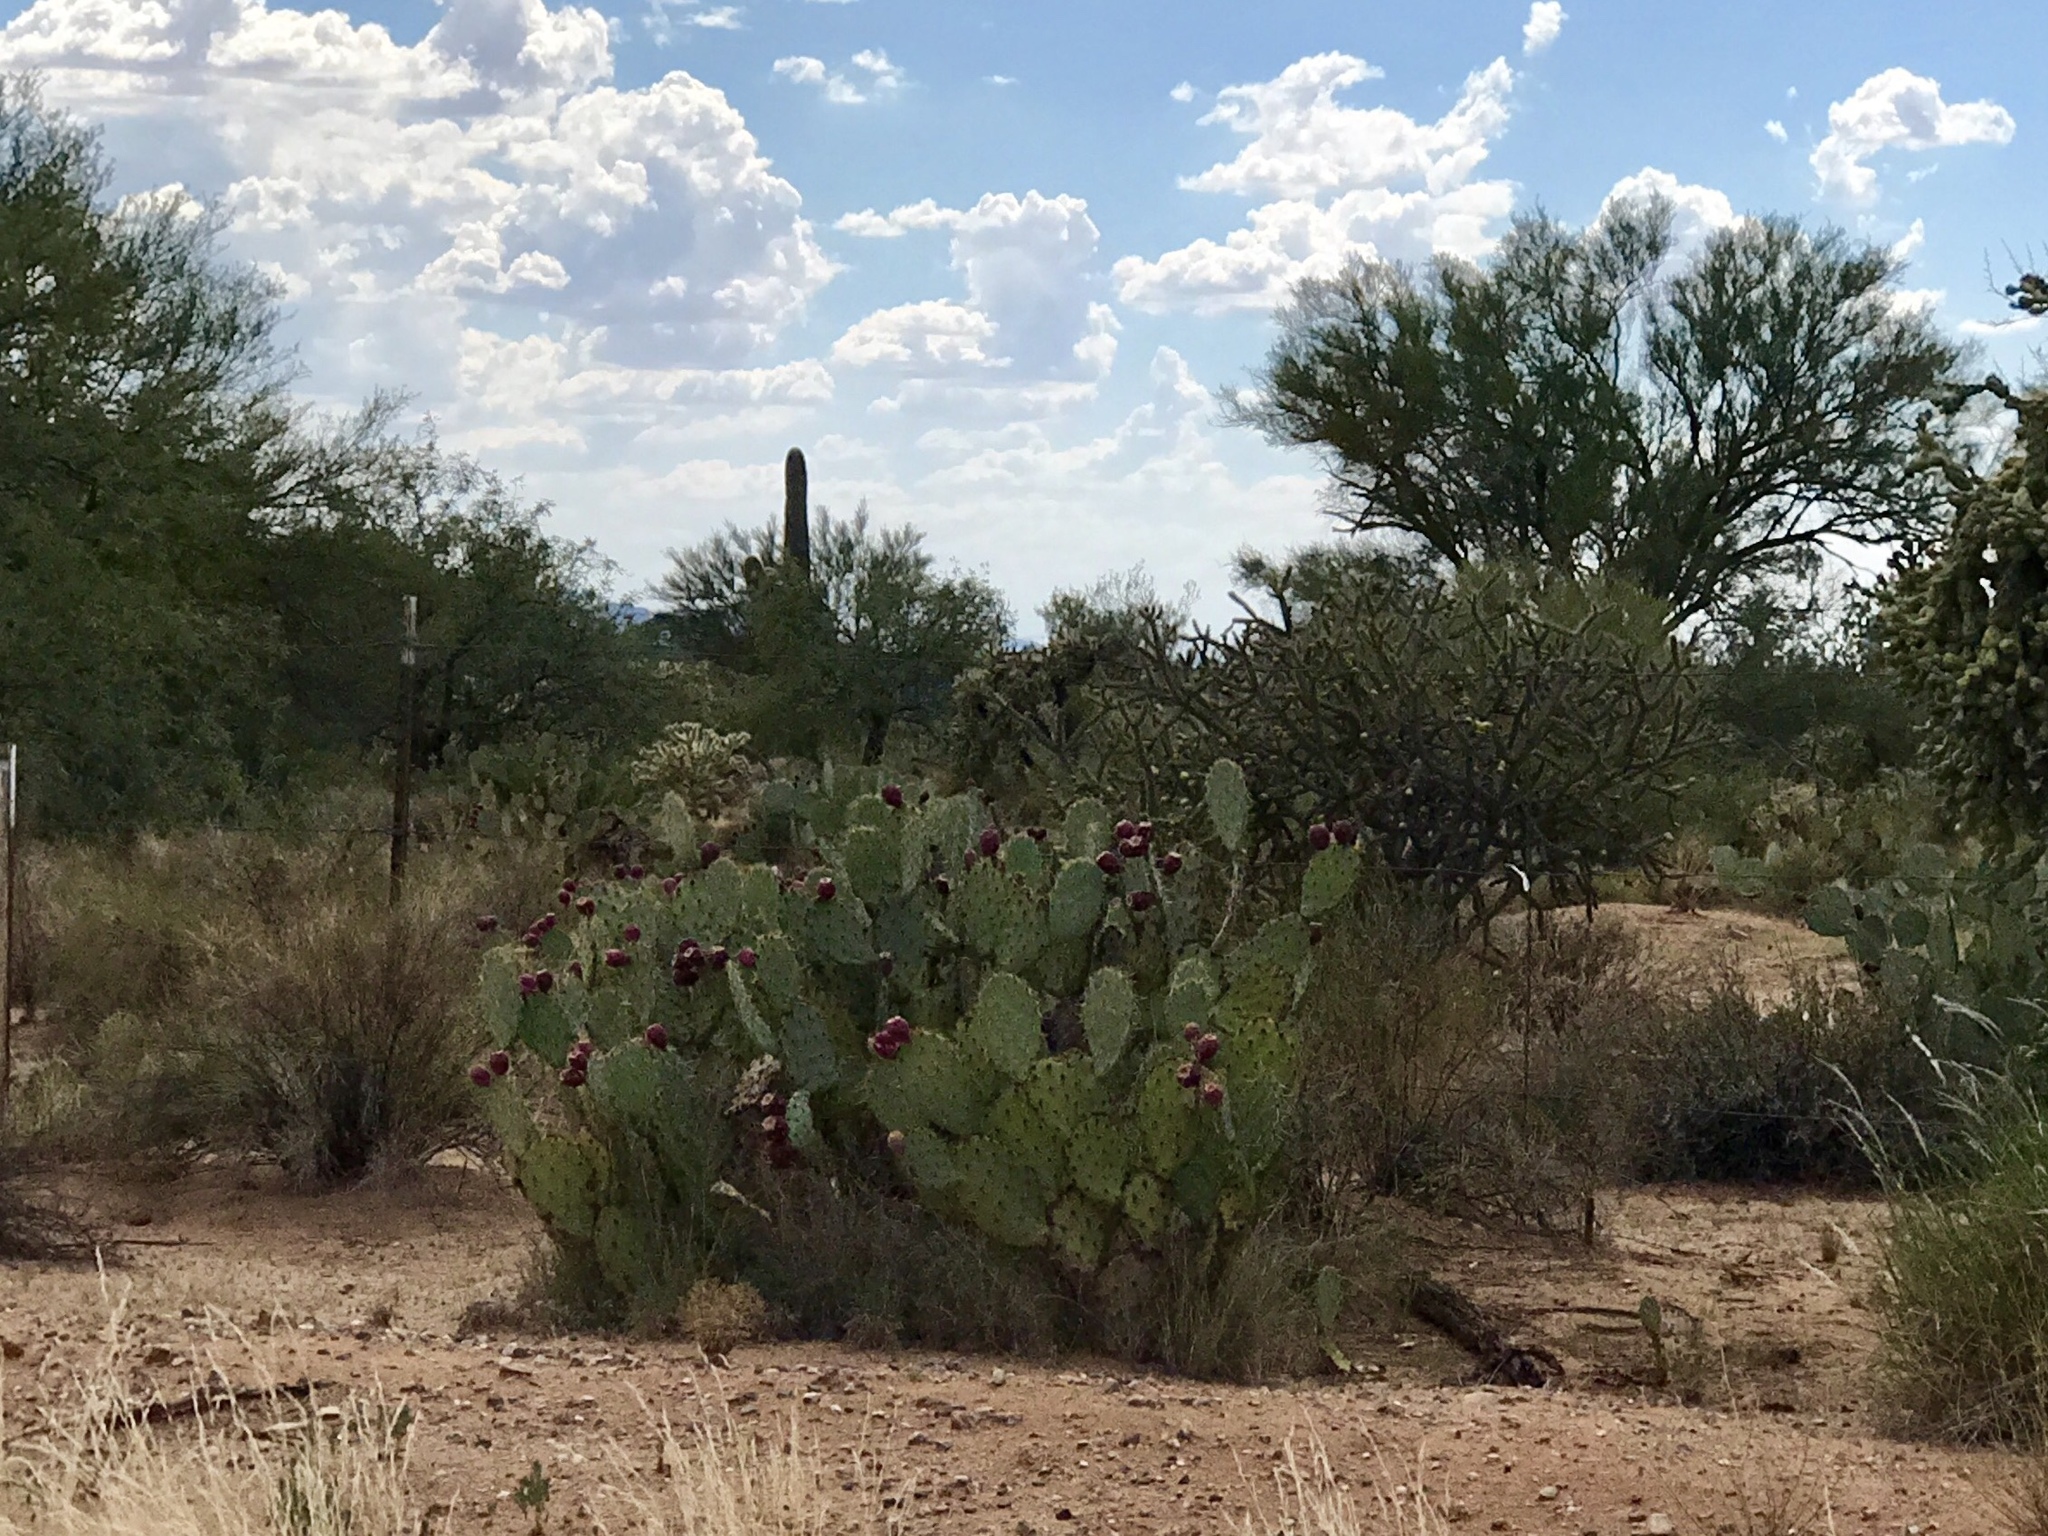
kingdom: Plantae
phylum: Tracheophyta
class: Magnoliopsida
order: Caryophyllales
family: Cactaceae
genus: Opuntia
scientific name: Opuntia engelmannii
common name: Cactus-apple
